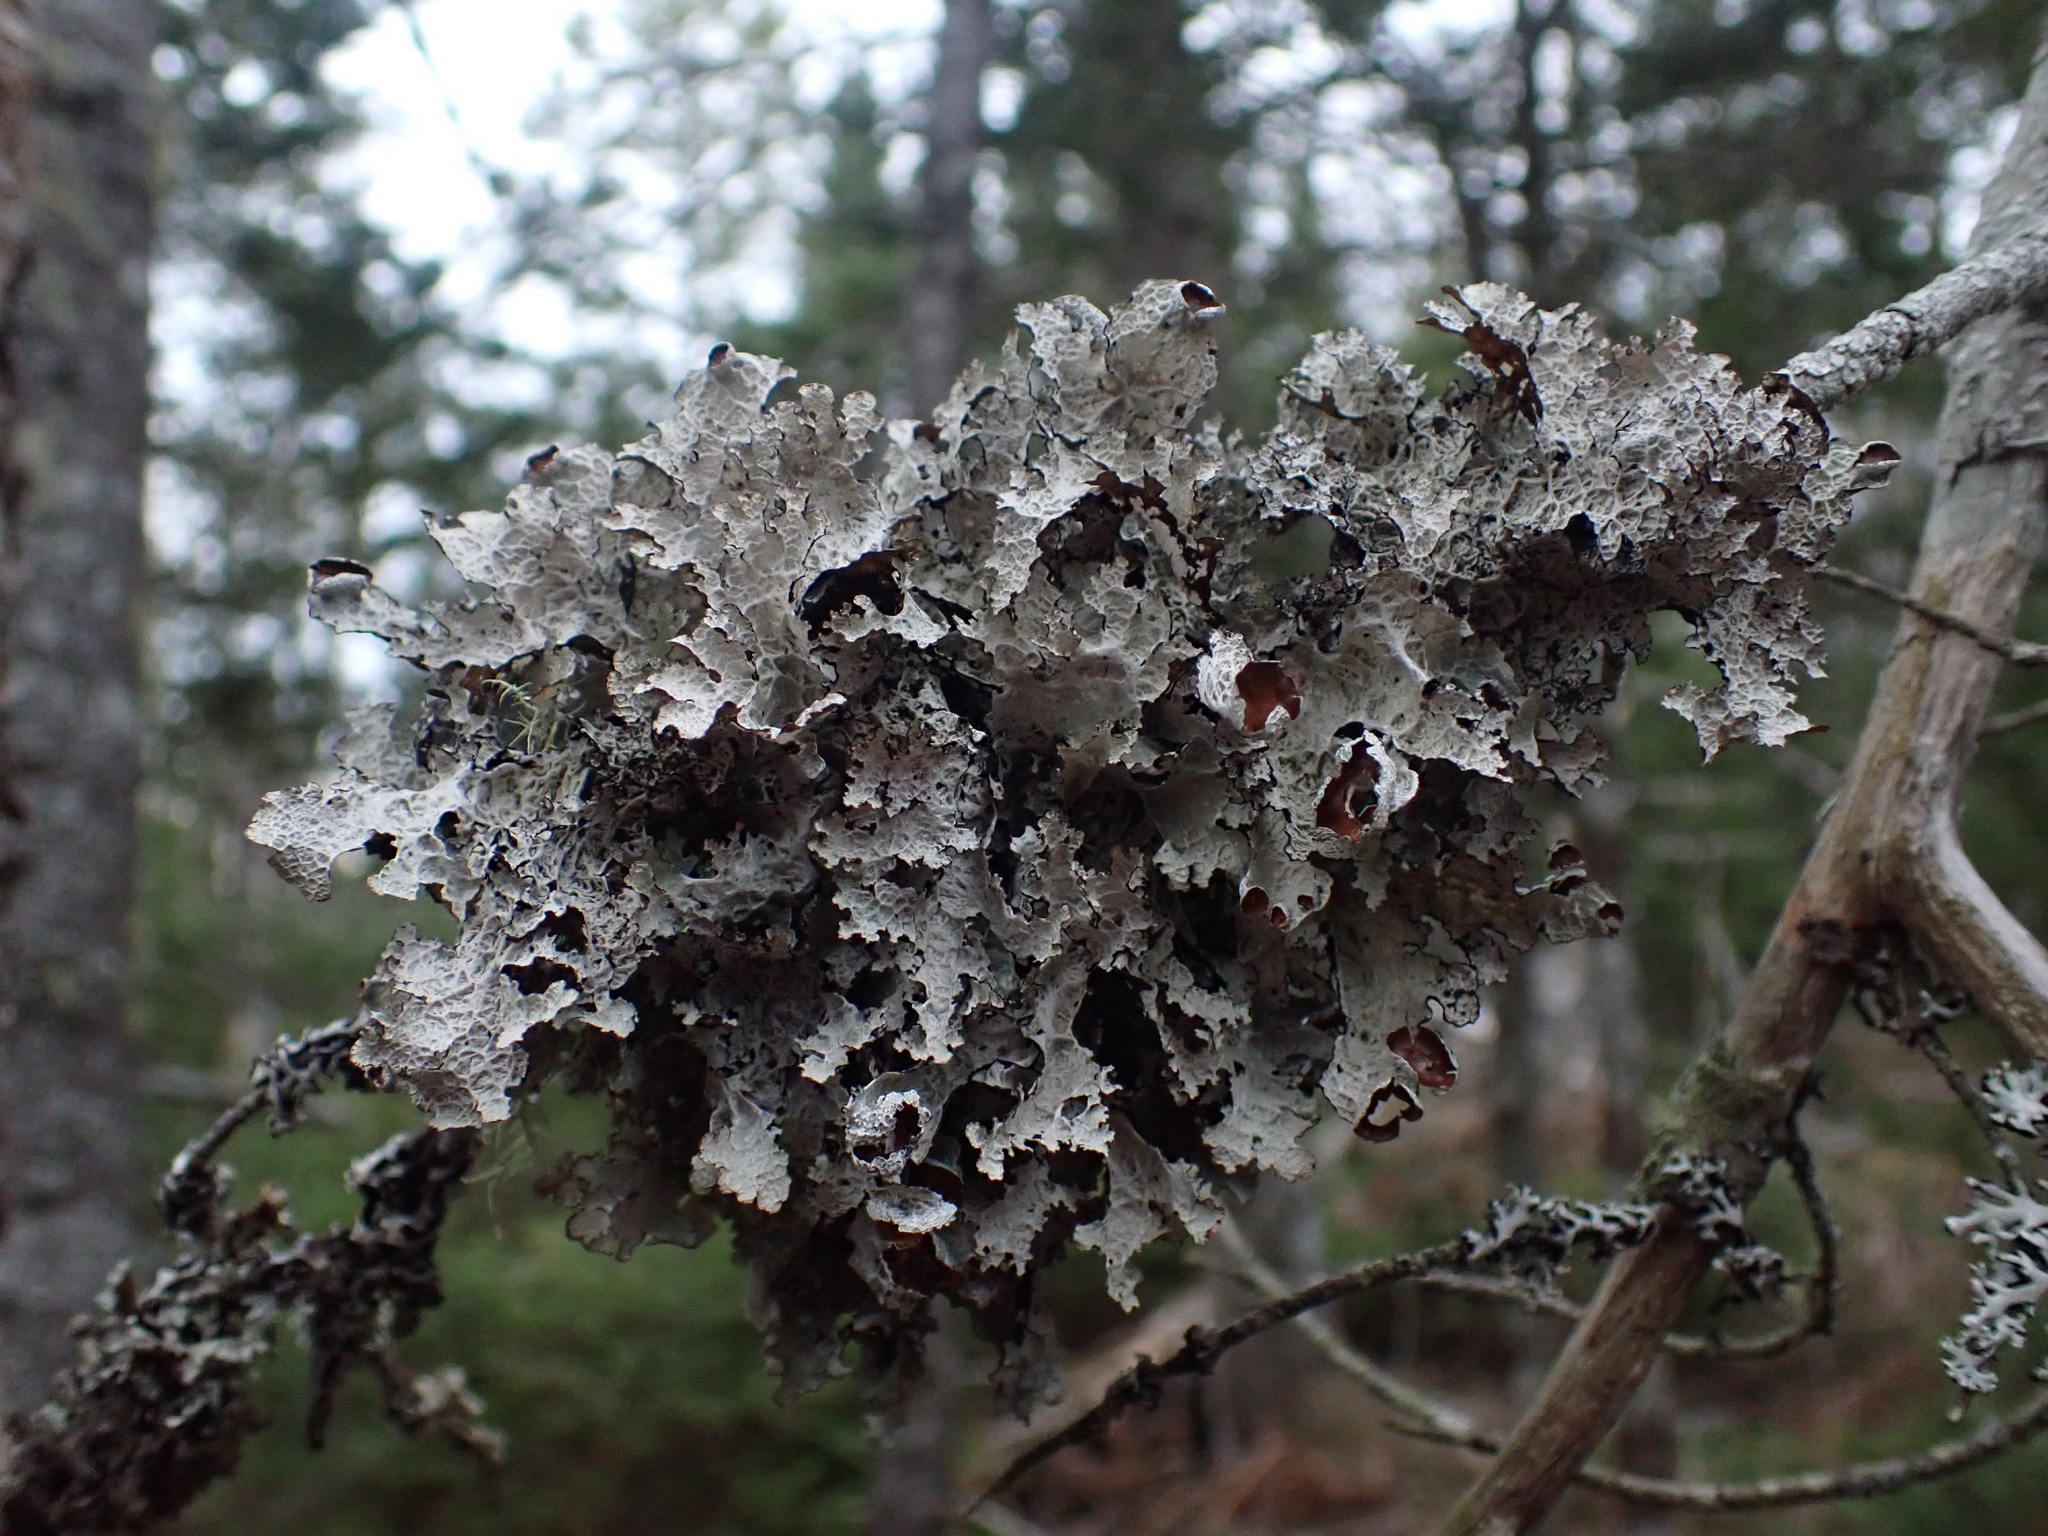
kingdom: Fungi
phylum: Ascomycota
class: Lecanoromycetes
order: Lecanorales
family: Parmeliaceae
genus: Platismatia
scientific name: Platismatia tuckermanii
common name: Crumpled rag lichen
